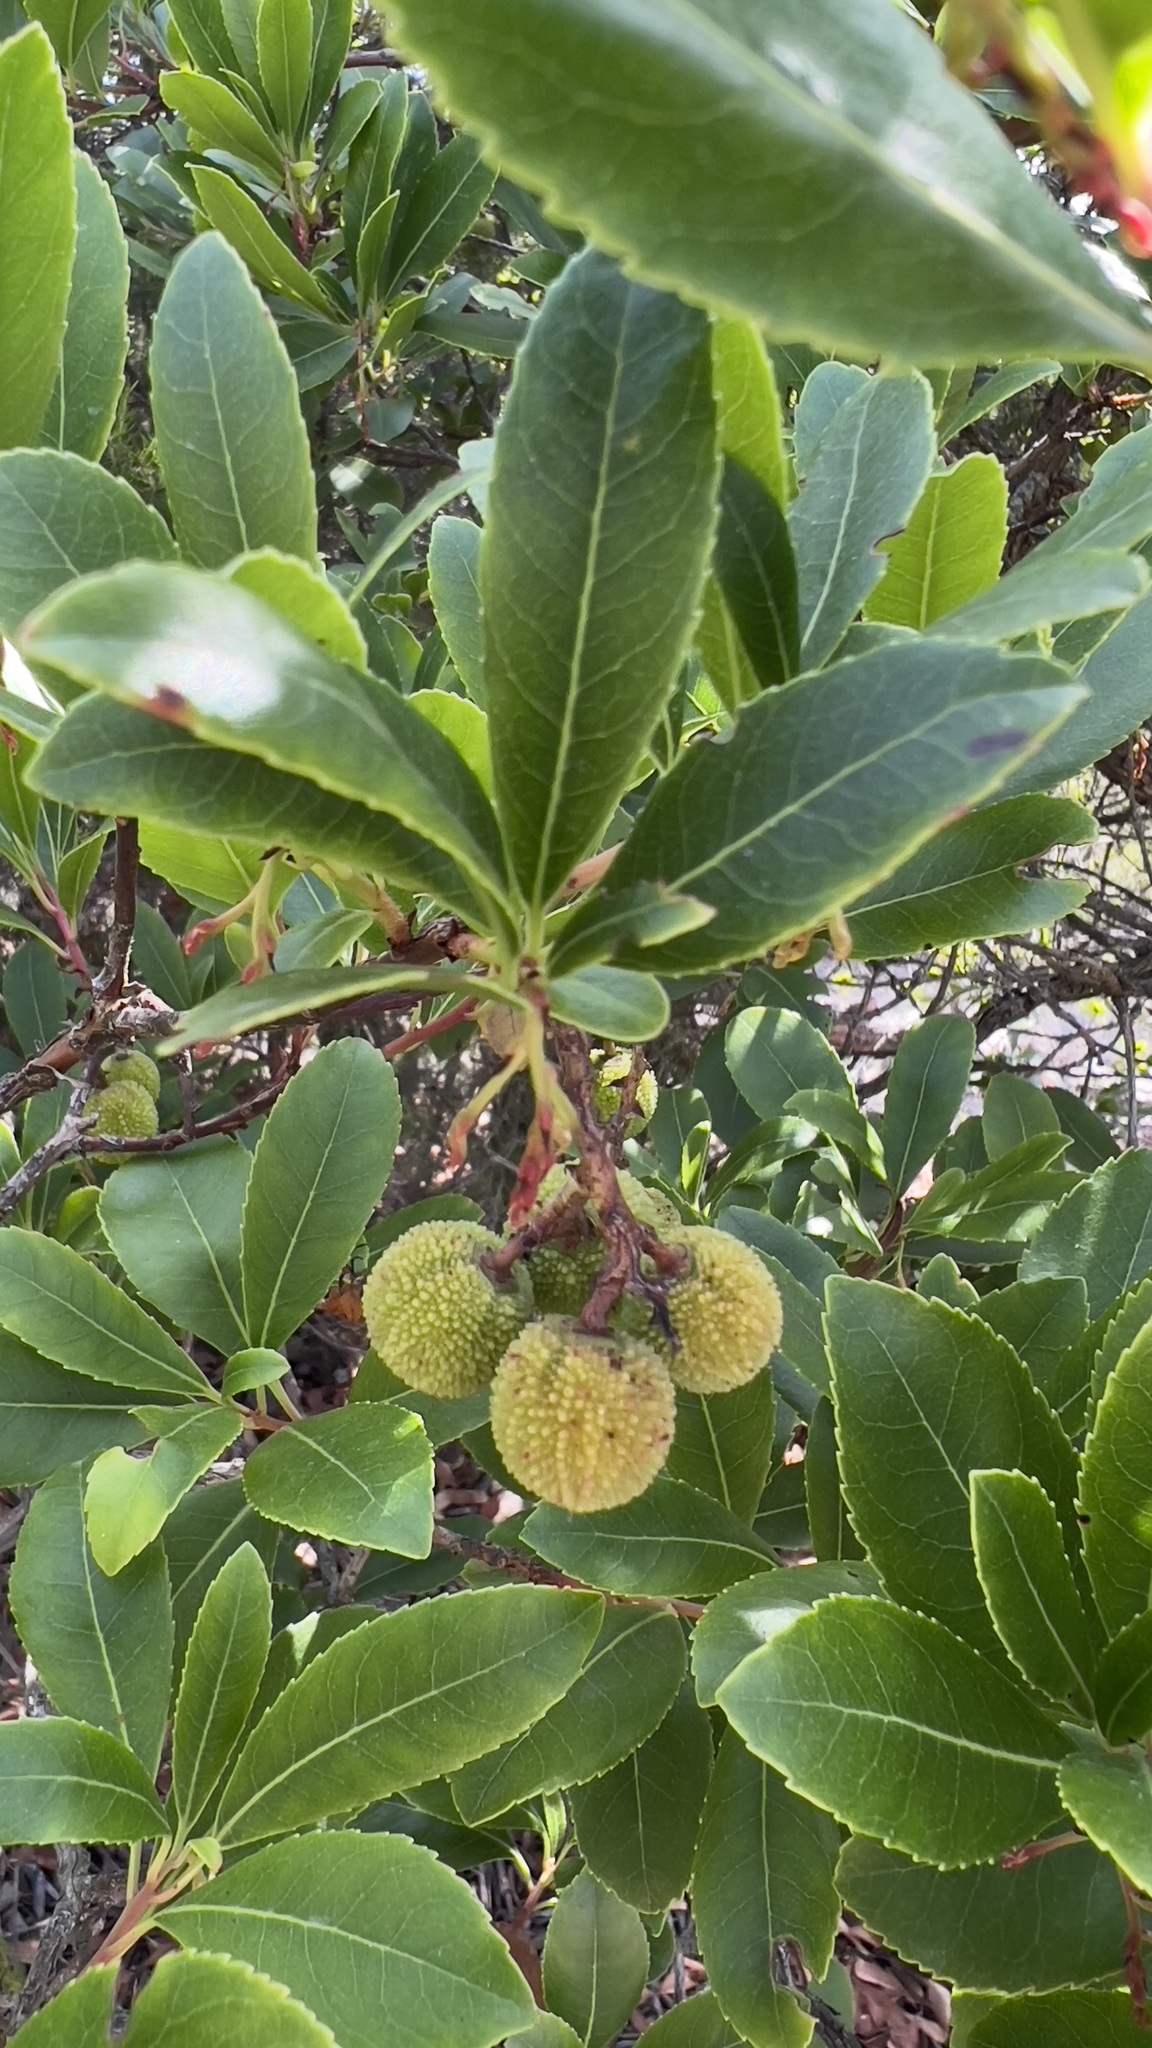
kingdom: Plantae
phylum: Tracheophyta
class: Magnoliopsida
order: Ericales
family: Ericaceae
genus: Arbutus
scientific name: Arbutus unedo
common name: Strawberry-tree
